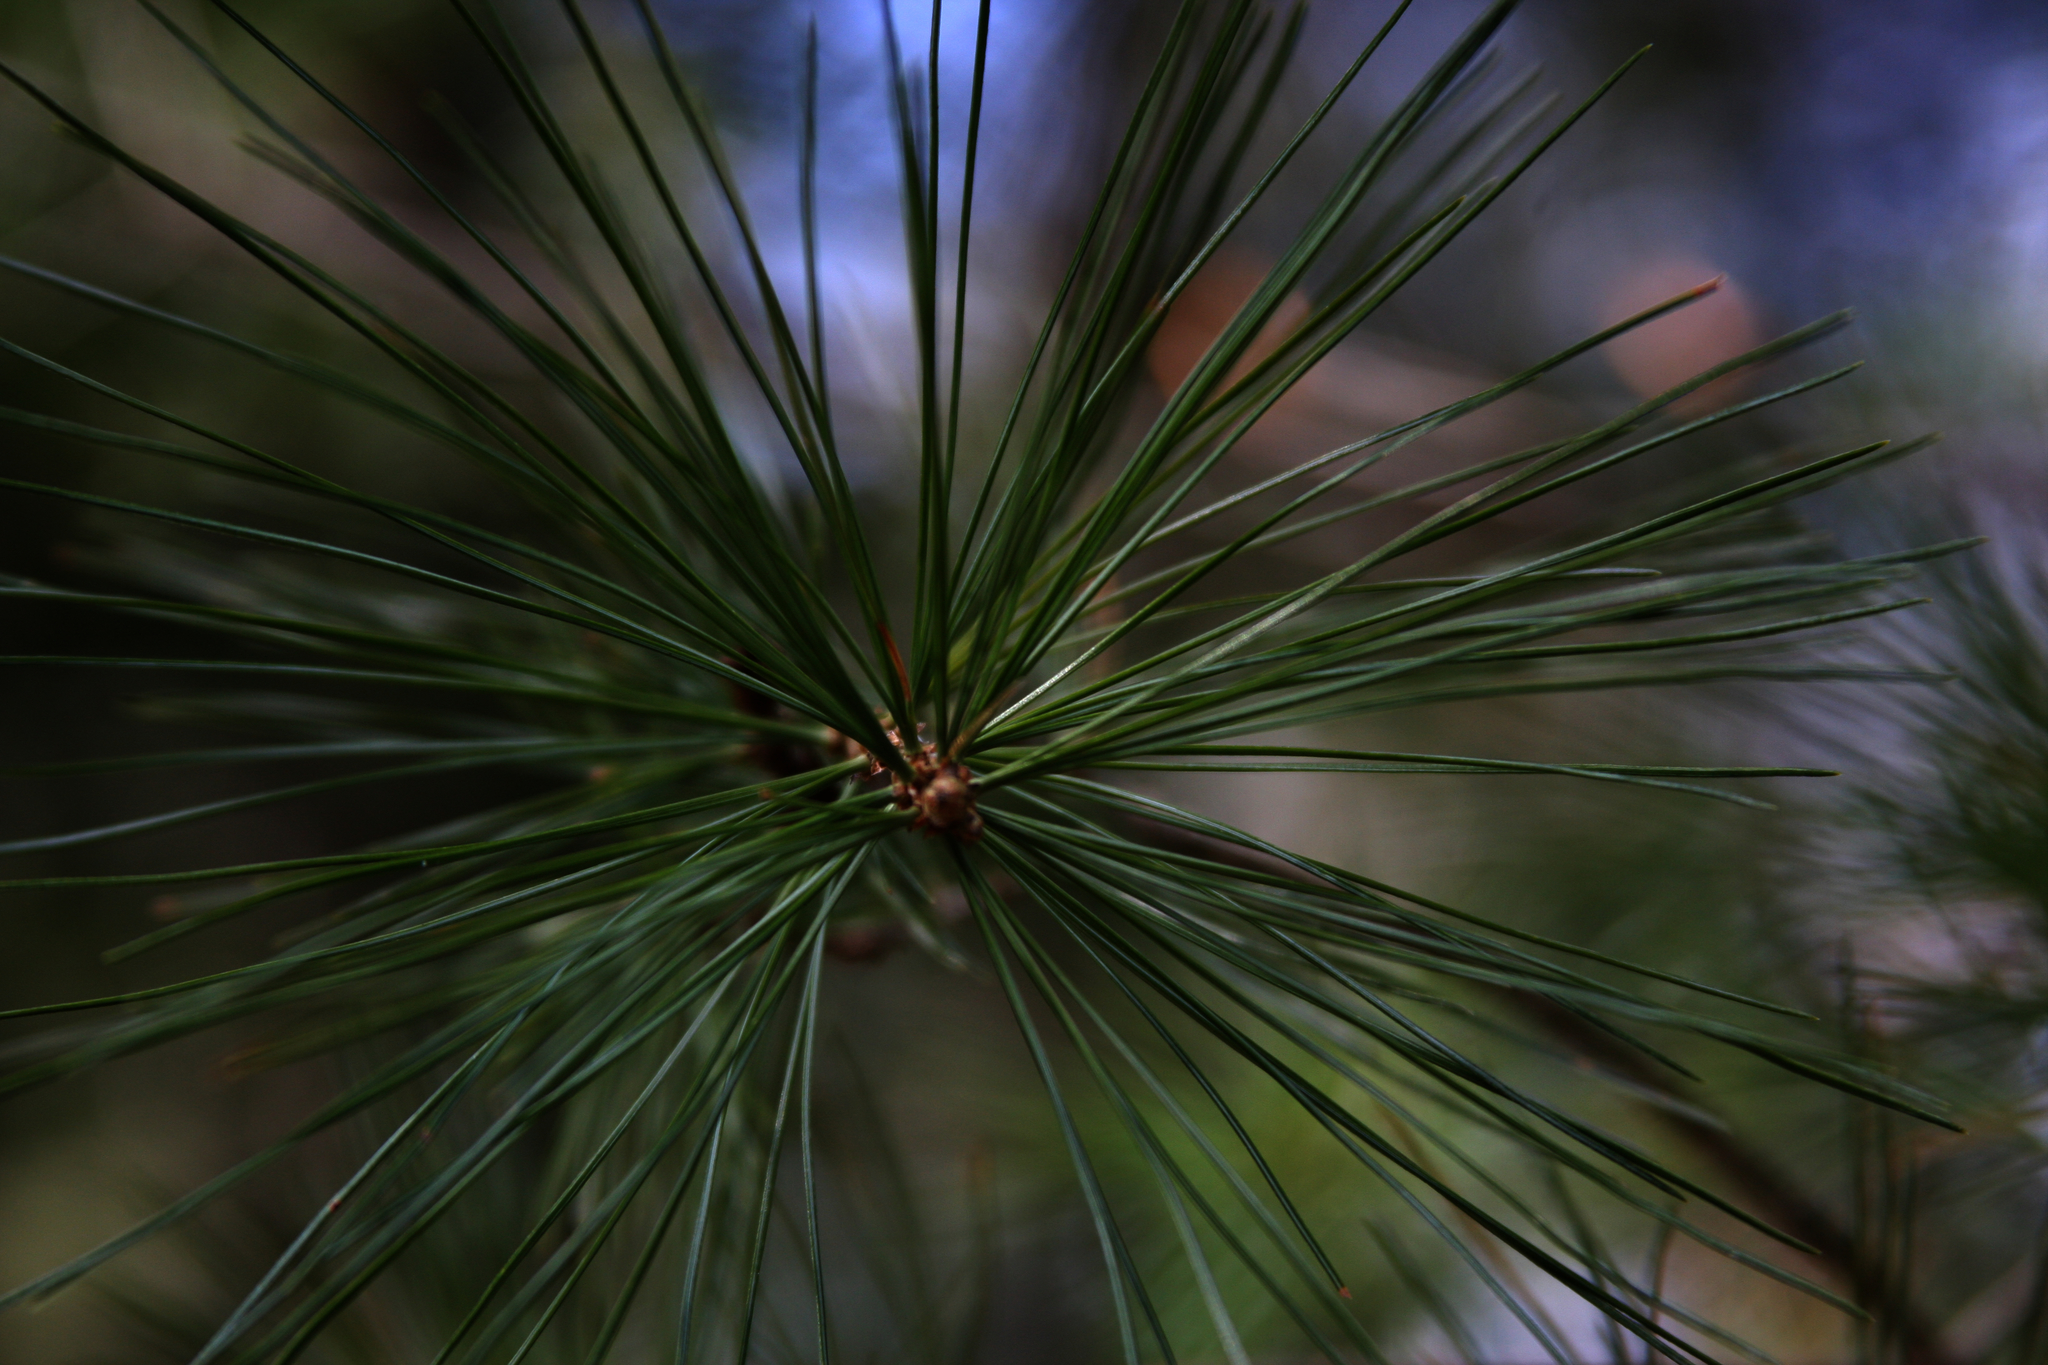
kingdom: Plantae
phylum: Tracheophyta
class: Pinopsida
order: Pinales
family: Pinaceae
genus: Pinus
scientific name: Pinus strobus
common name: Weymouth pine
